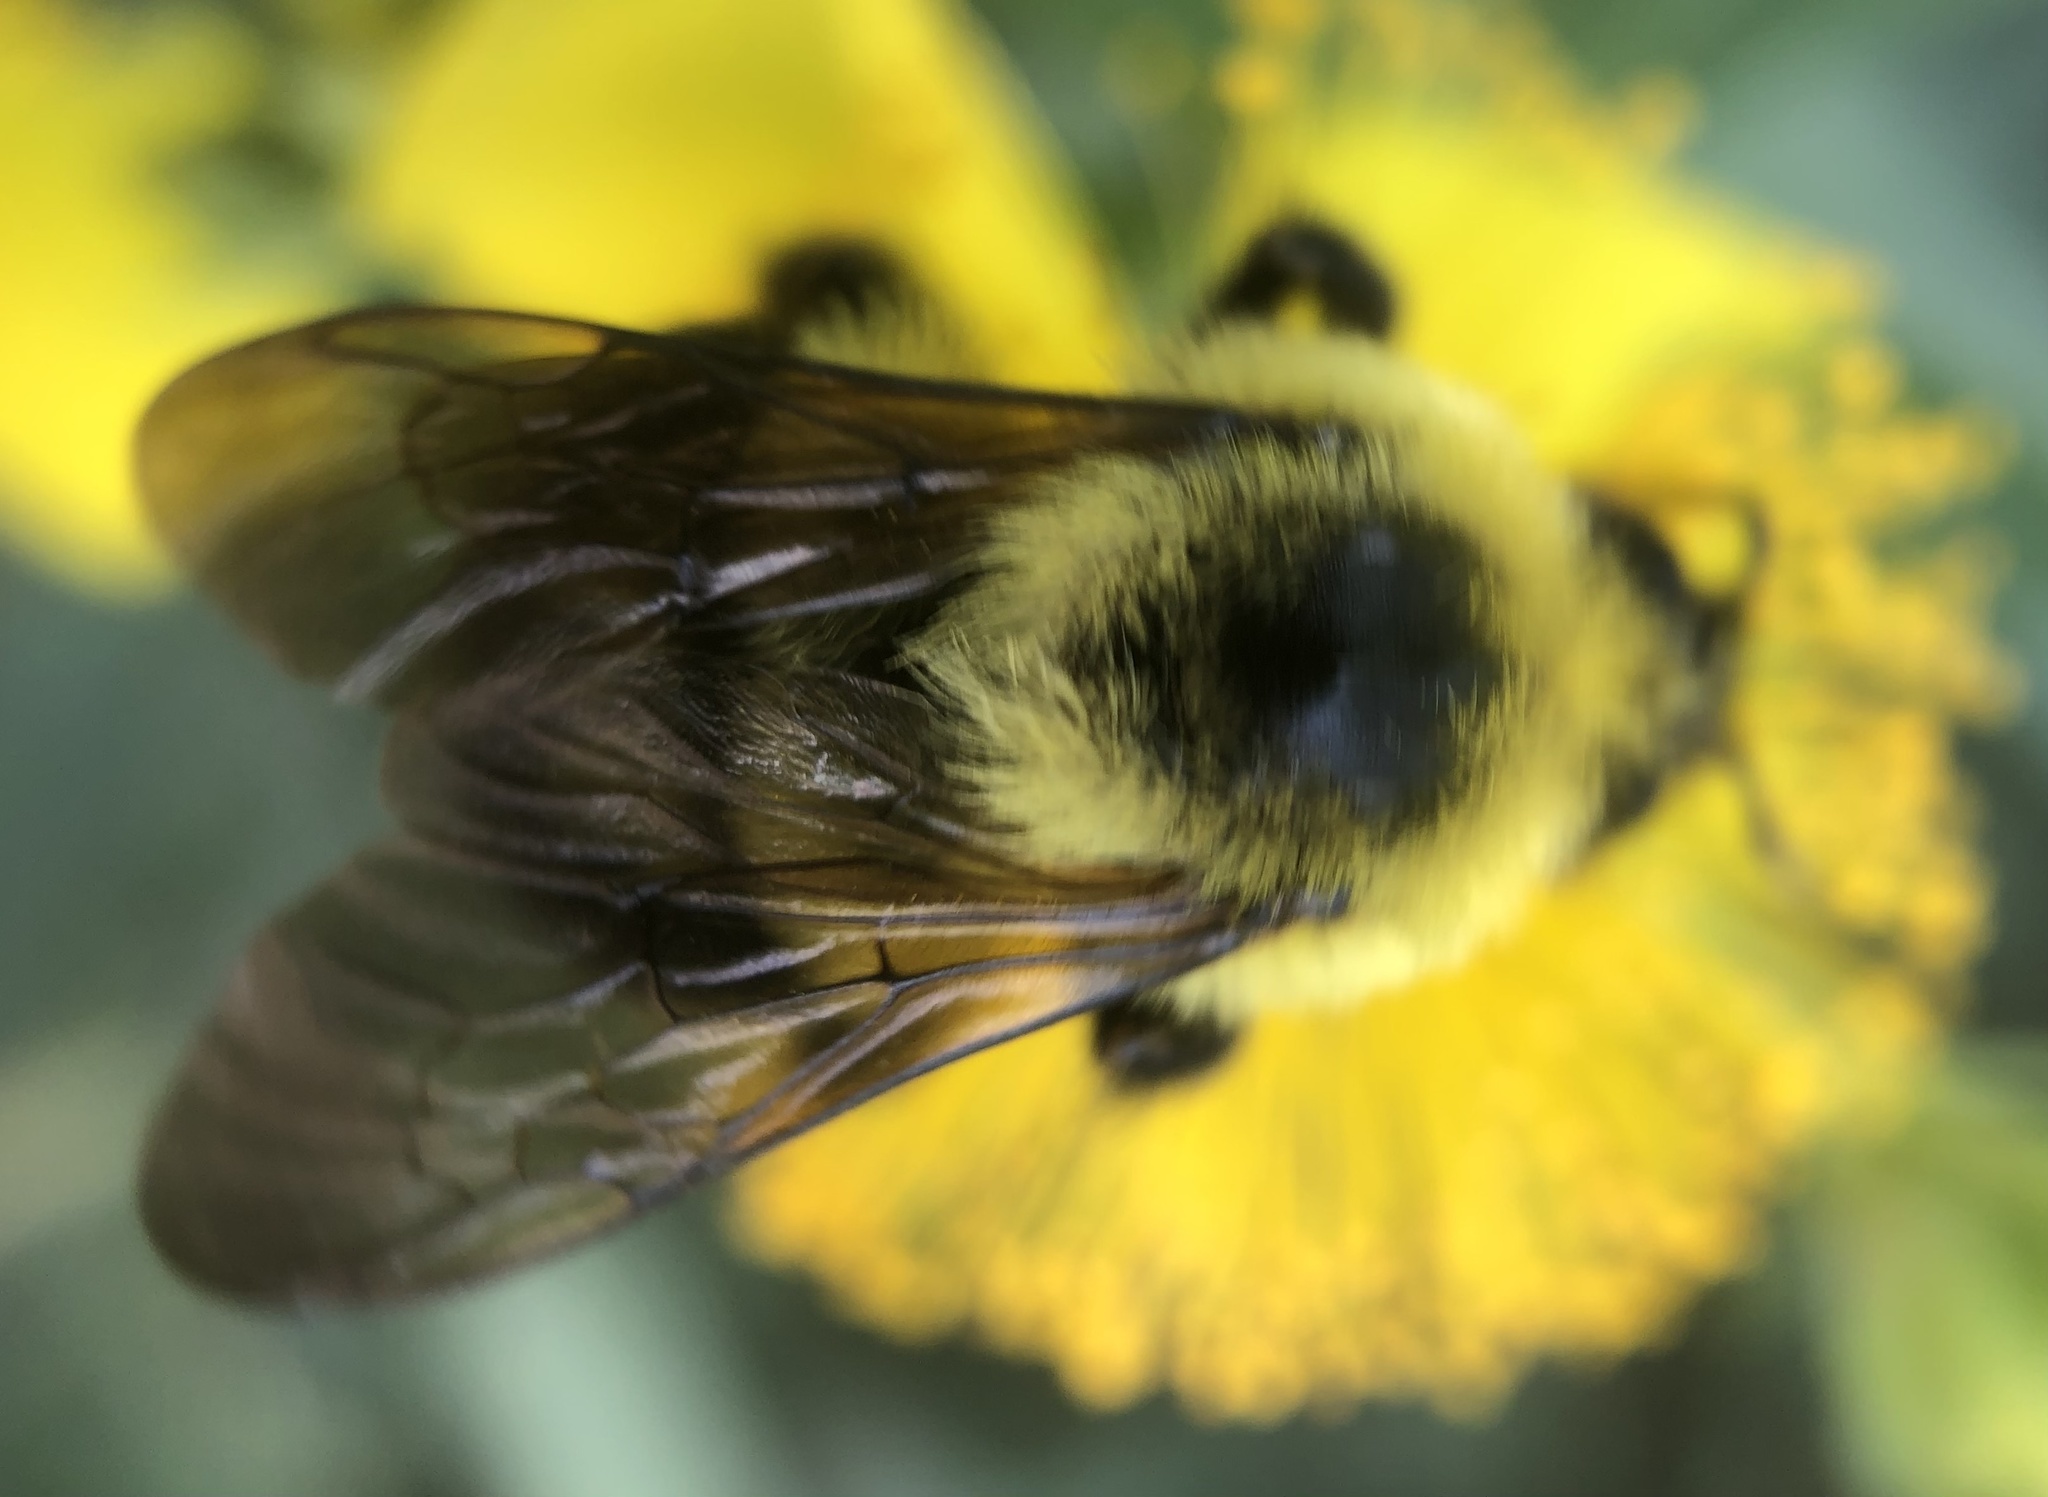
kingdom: Animalia
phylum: Arthropoda
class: Insecta
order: Hymenoptera
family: Apidae
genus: Bombus
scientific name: Bombus bimaculatus
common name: Two-spotted bumble bee
